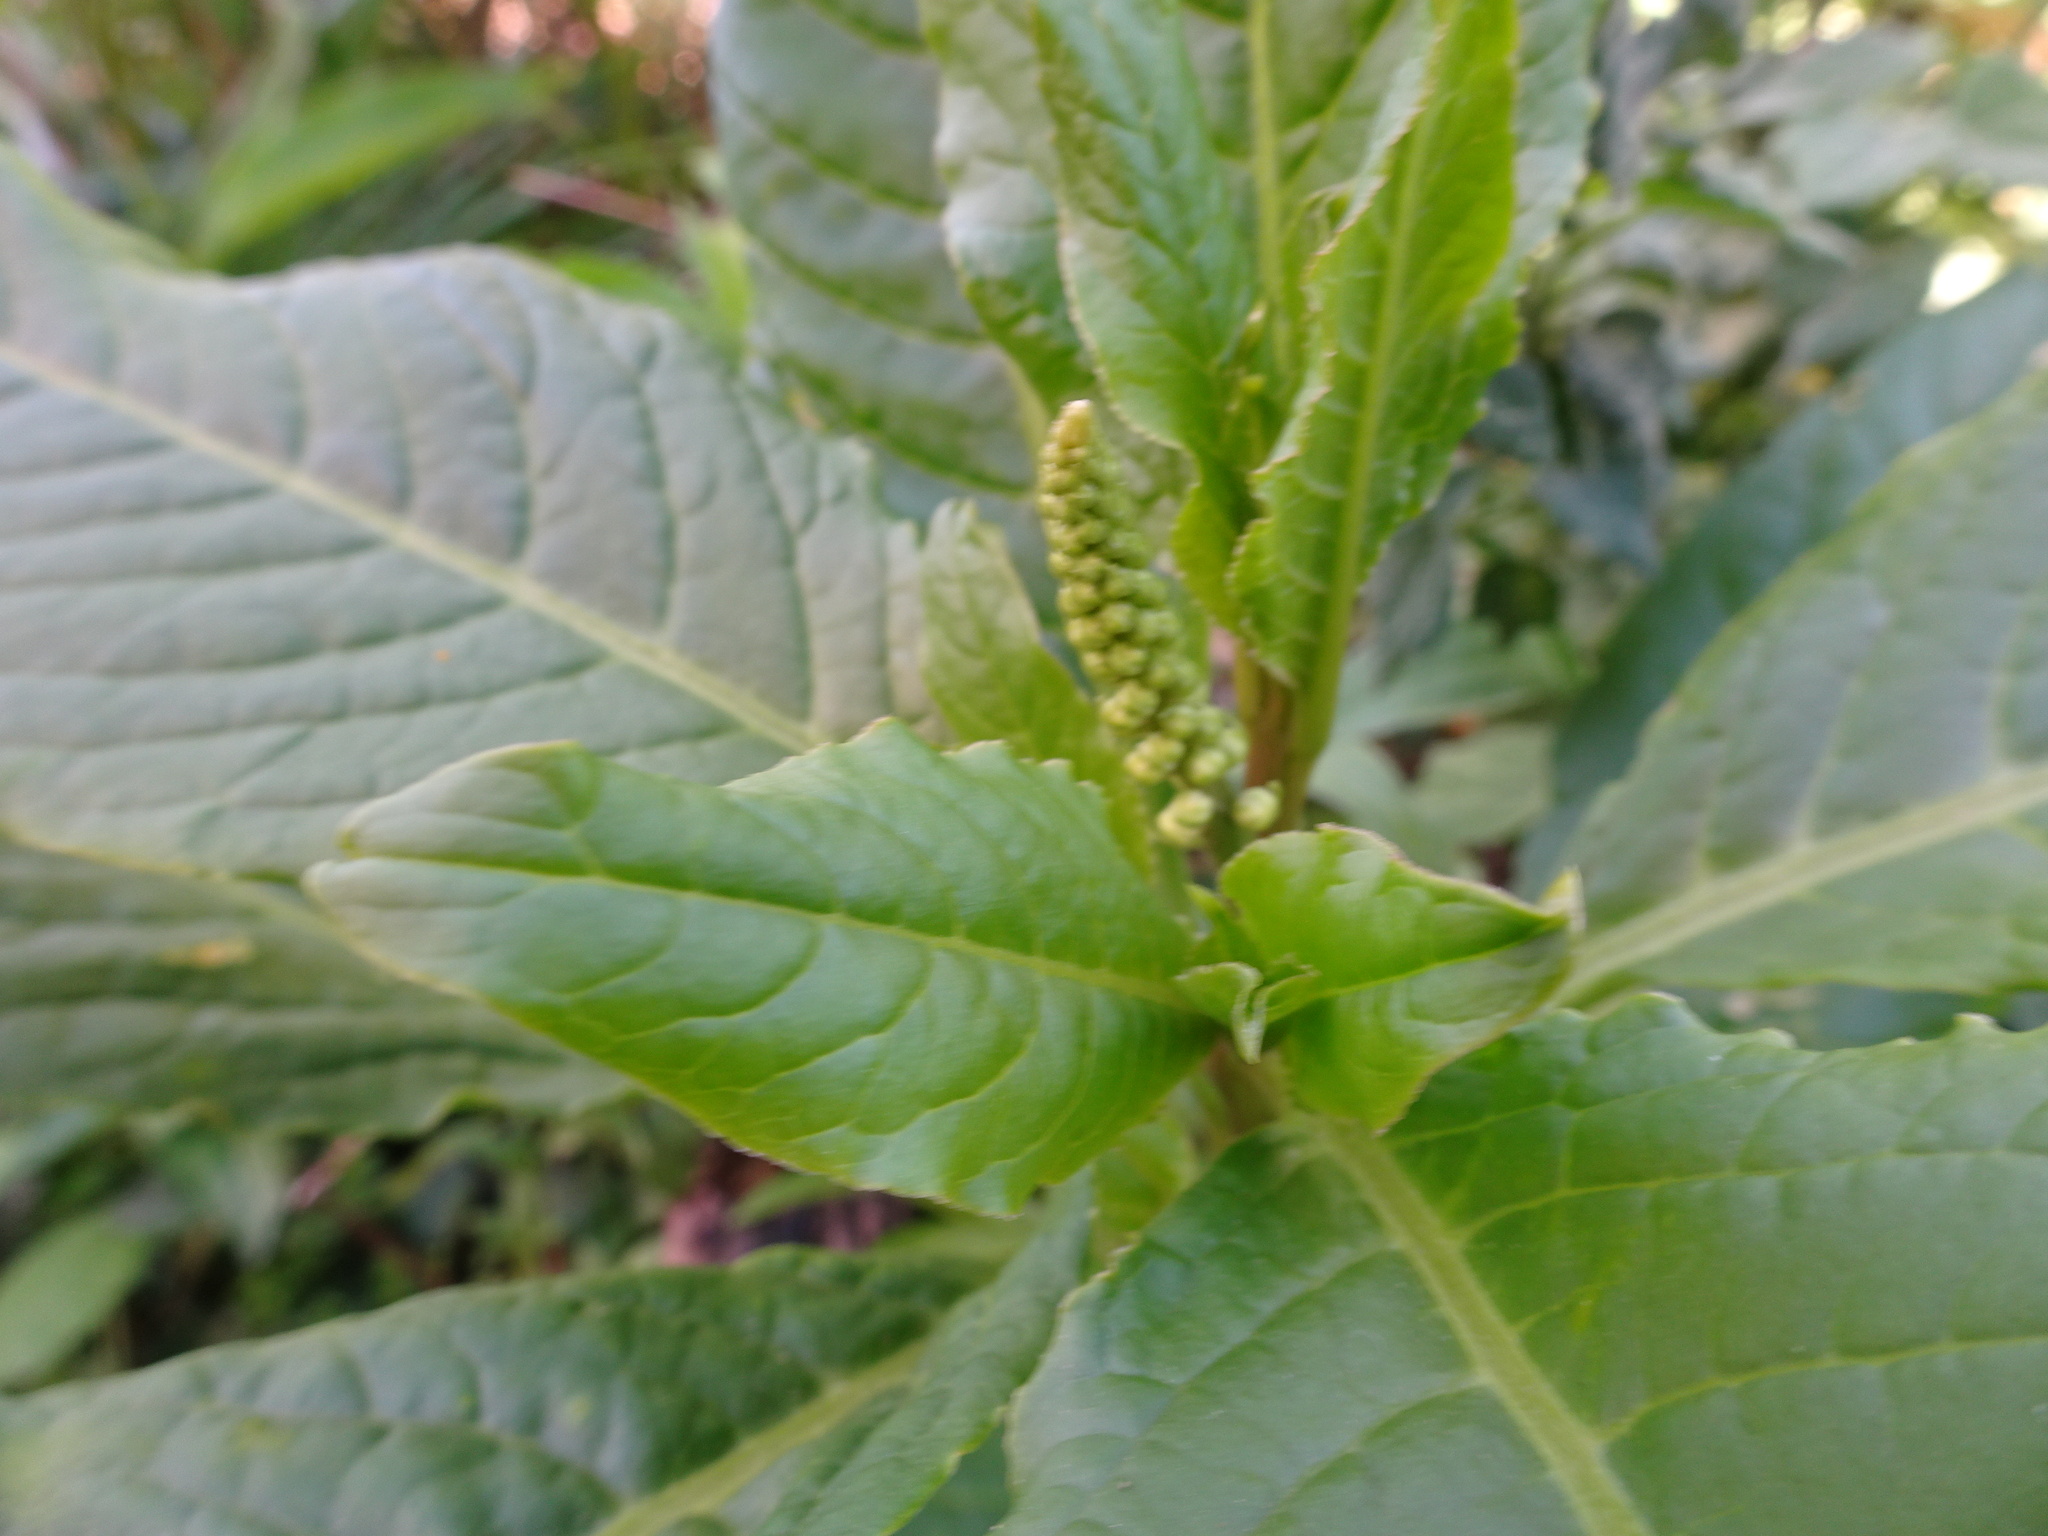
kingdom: Plantae
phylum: Tracheophyta
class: Magnoliopsida
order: Caryophyllales
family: Phytolaccaceae
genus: Phytolacca
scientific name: Phytolacca icosandra
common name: Button pokeweed
